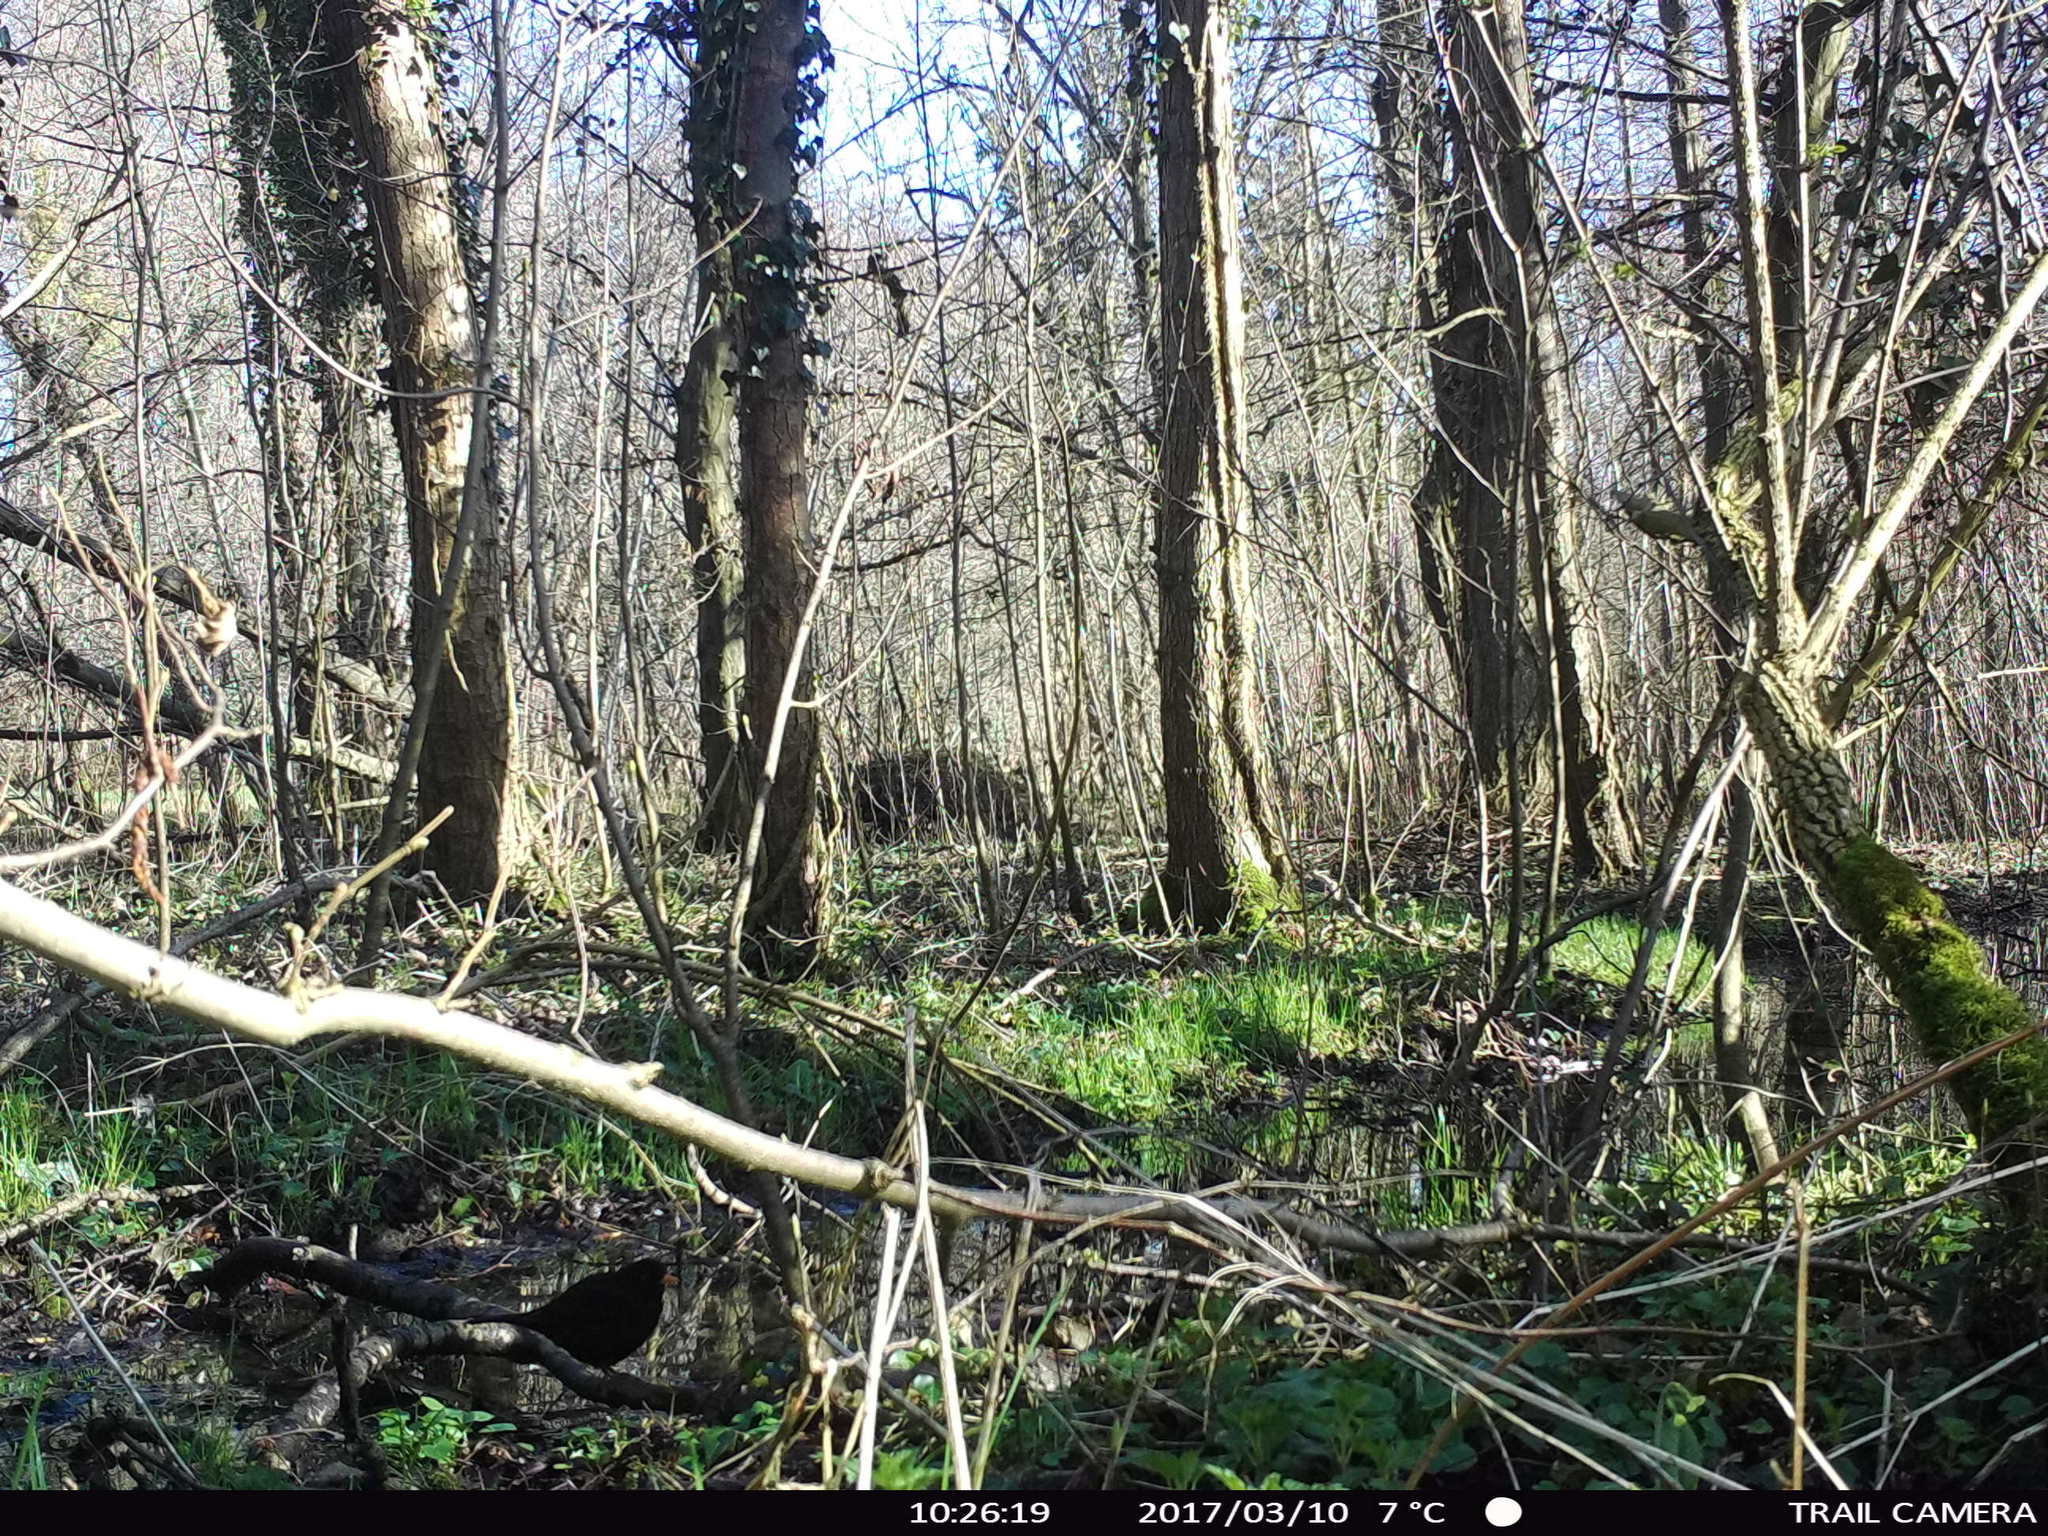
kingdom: Animalia
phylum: Chordata
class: Aves
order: Passeriformes
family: Turdidae
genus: Turdus
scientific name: Turdus merula
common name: Common blackbird
